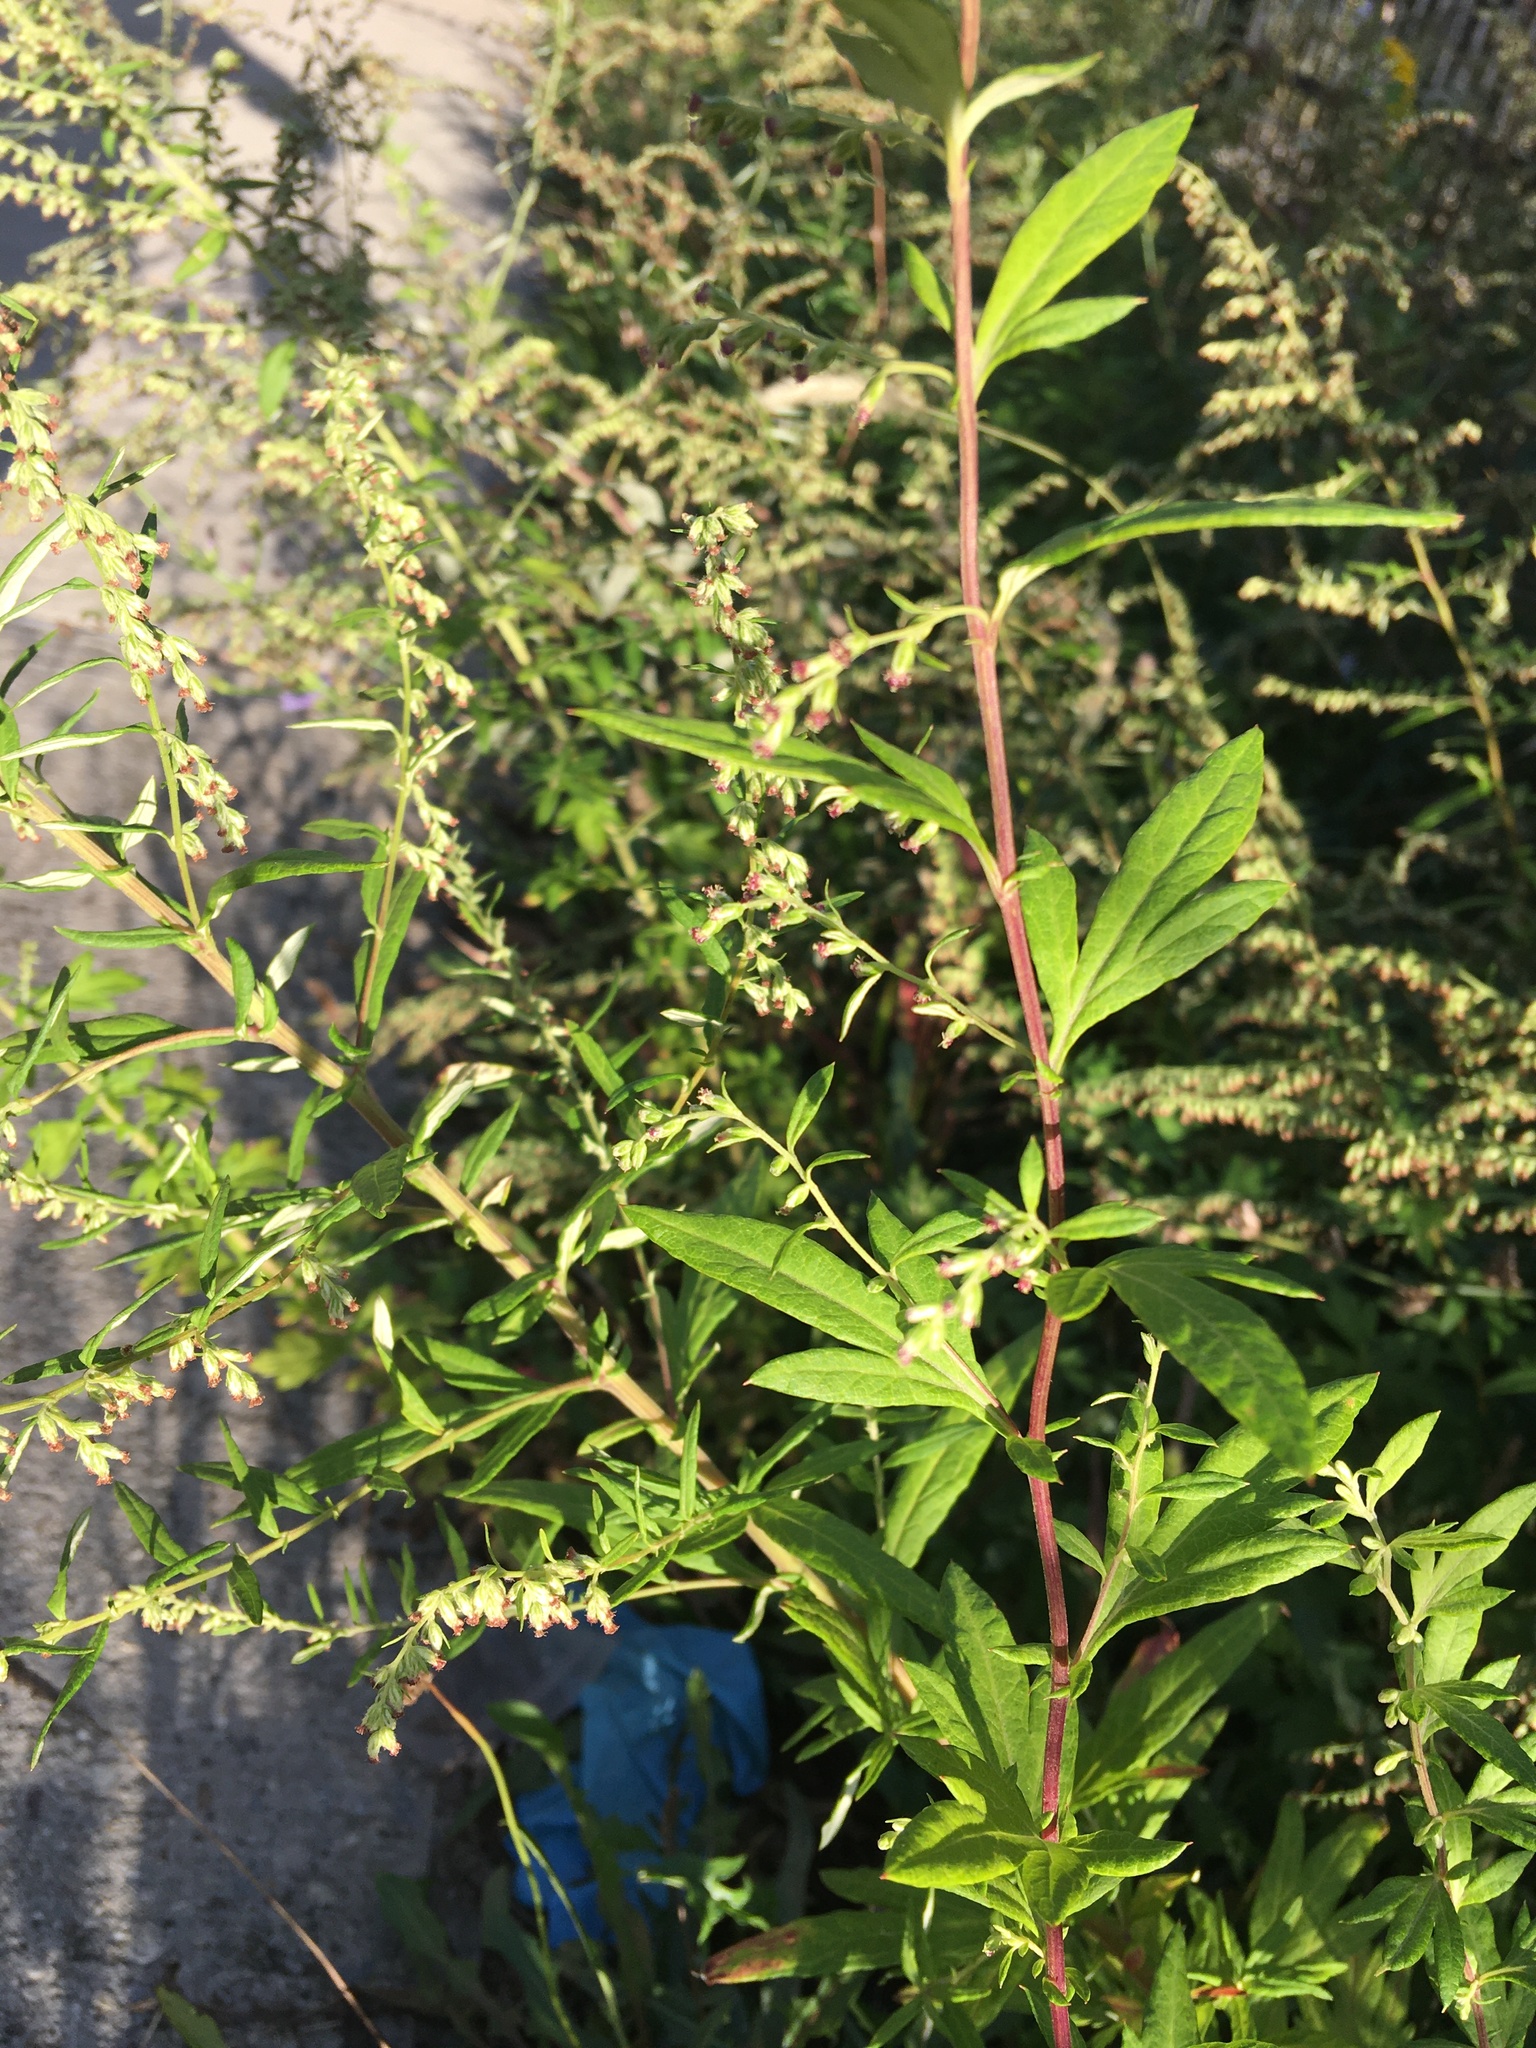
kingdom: Plantae
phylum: Tracheophyta
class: Magnoliopsida
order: Asterales
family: Asteraceae
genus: Artemisia
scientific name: Artemisia vulgaris
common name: Mugwort
